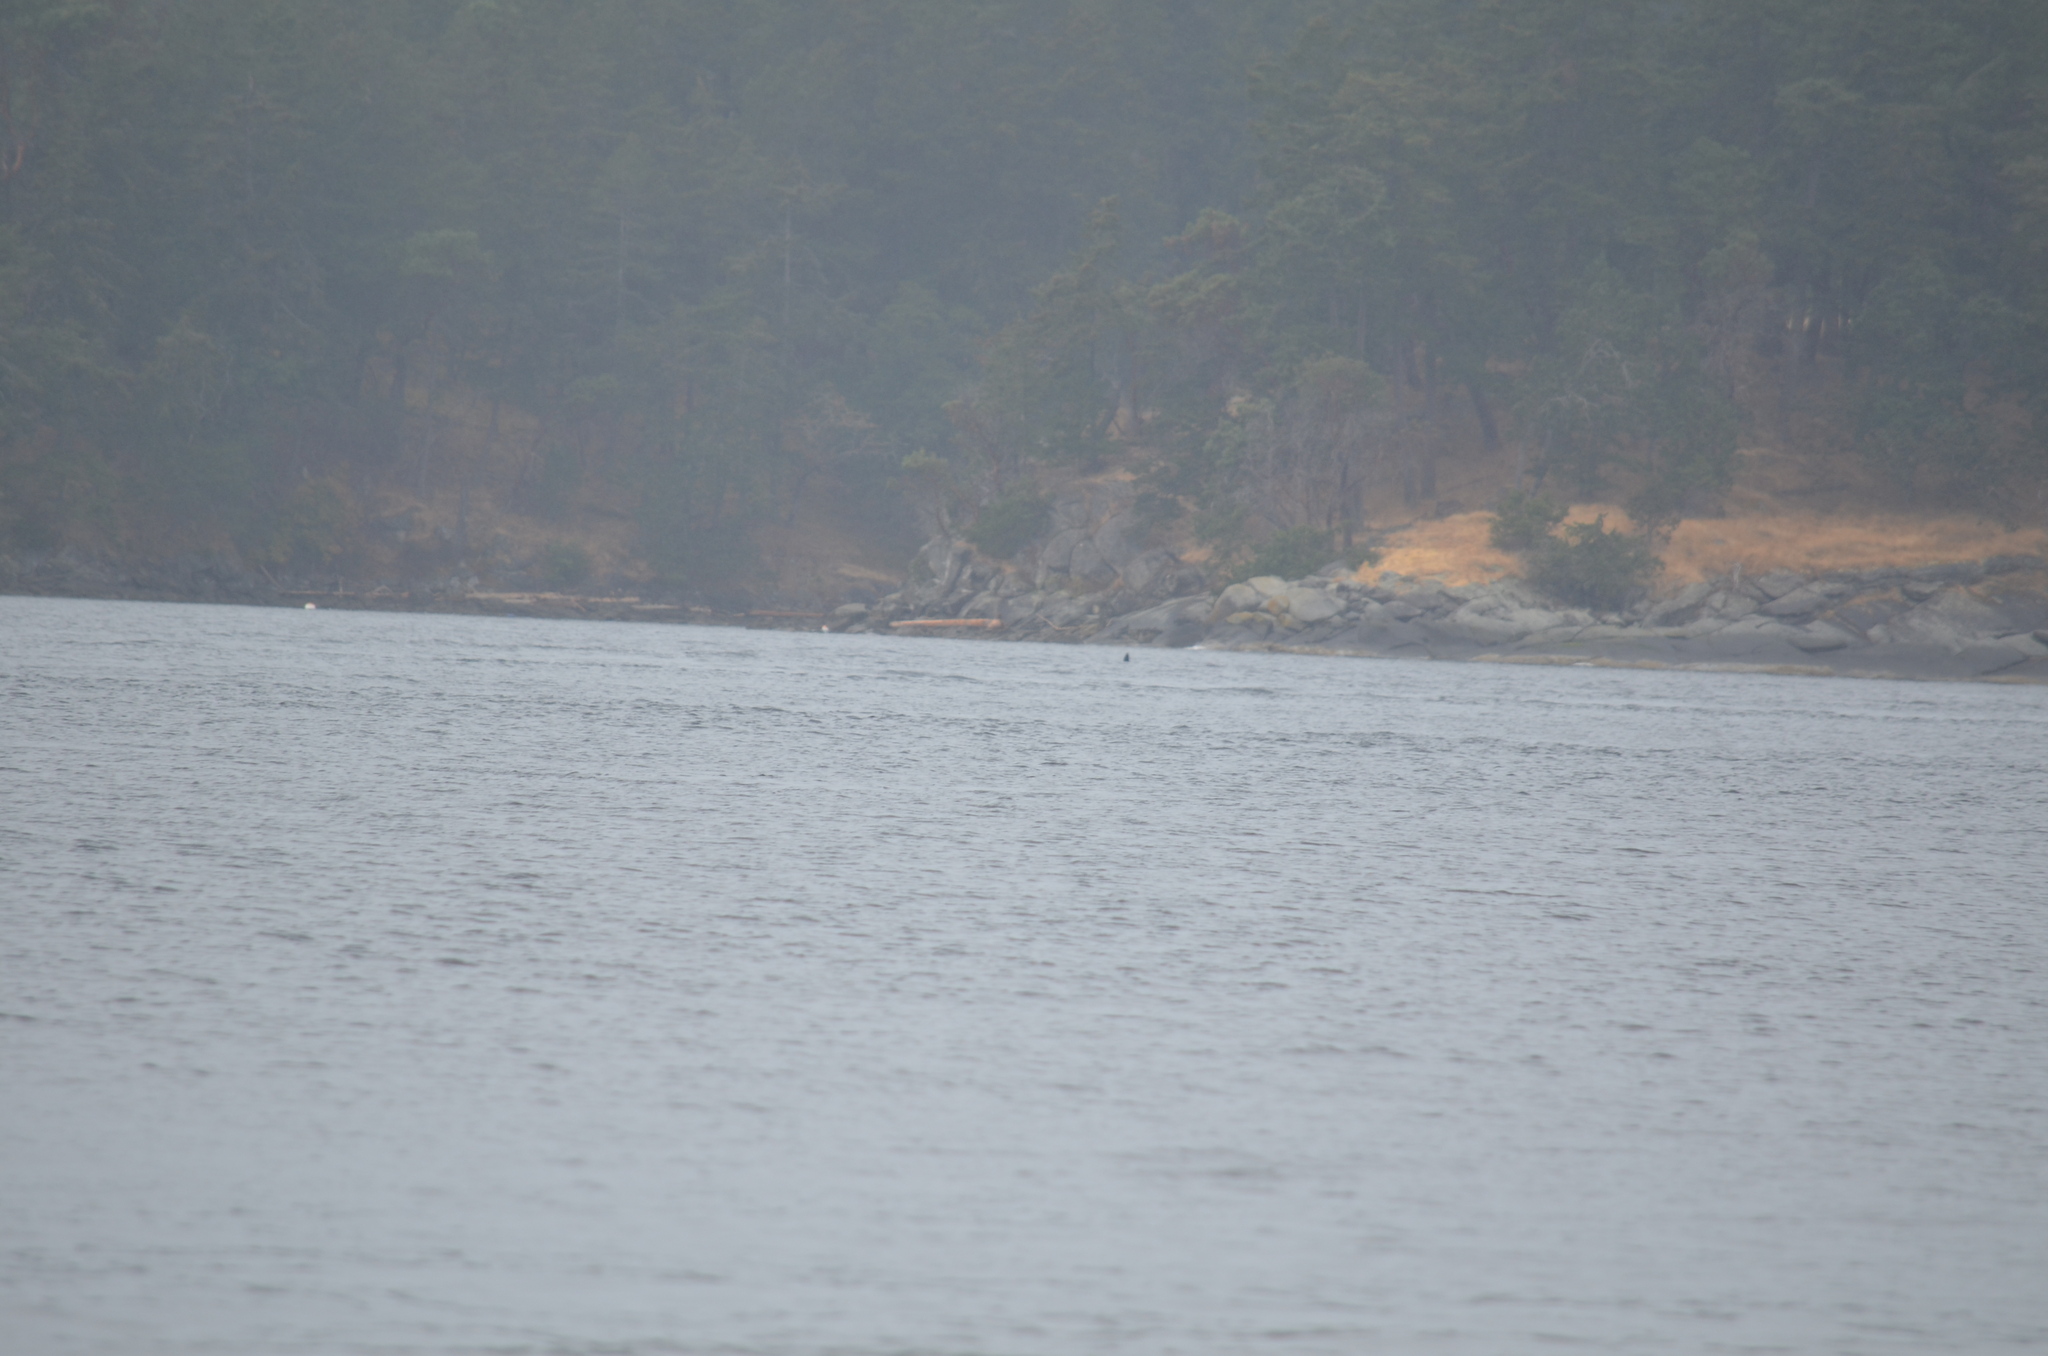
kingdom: Animalia
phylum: Chordata
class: Mammalia
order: Cetacea
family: Delphinidae
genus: Orcinus
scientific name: Orcinus orca
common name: Killer whale
